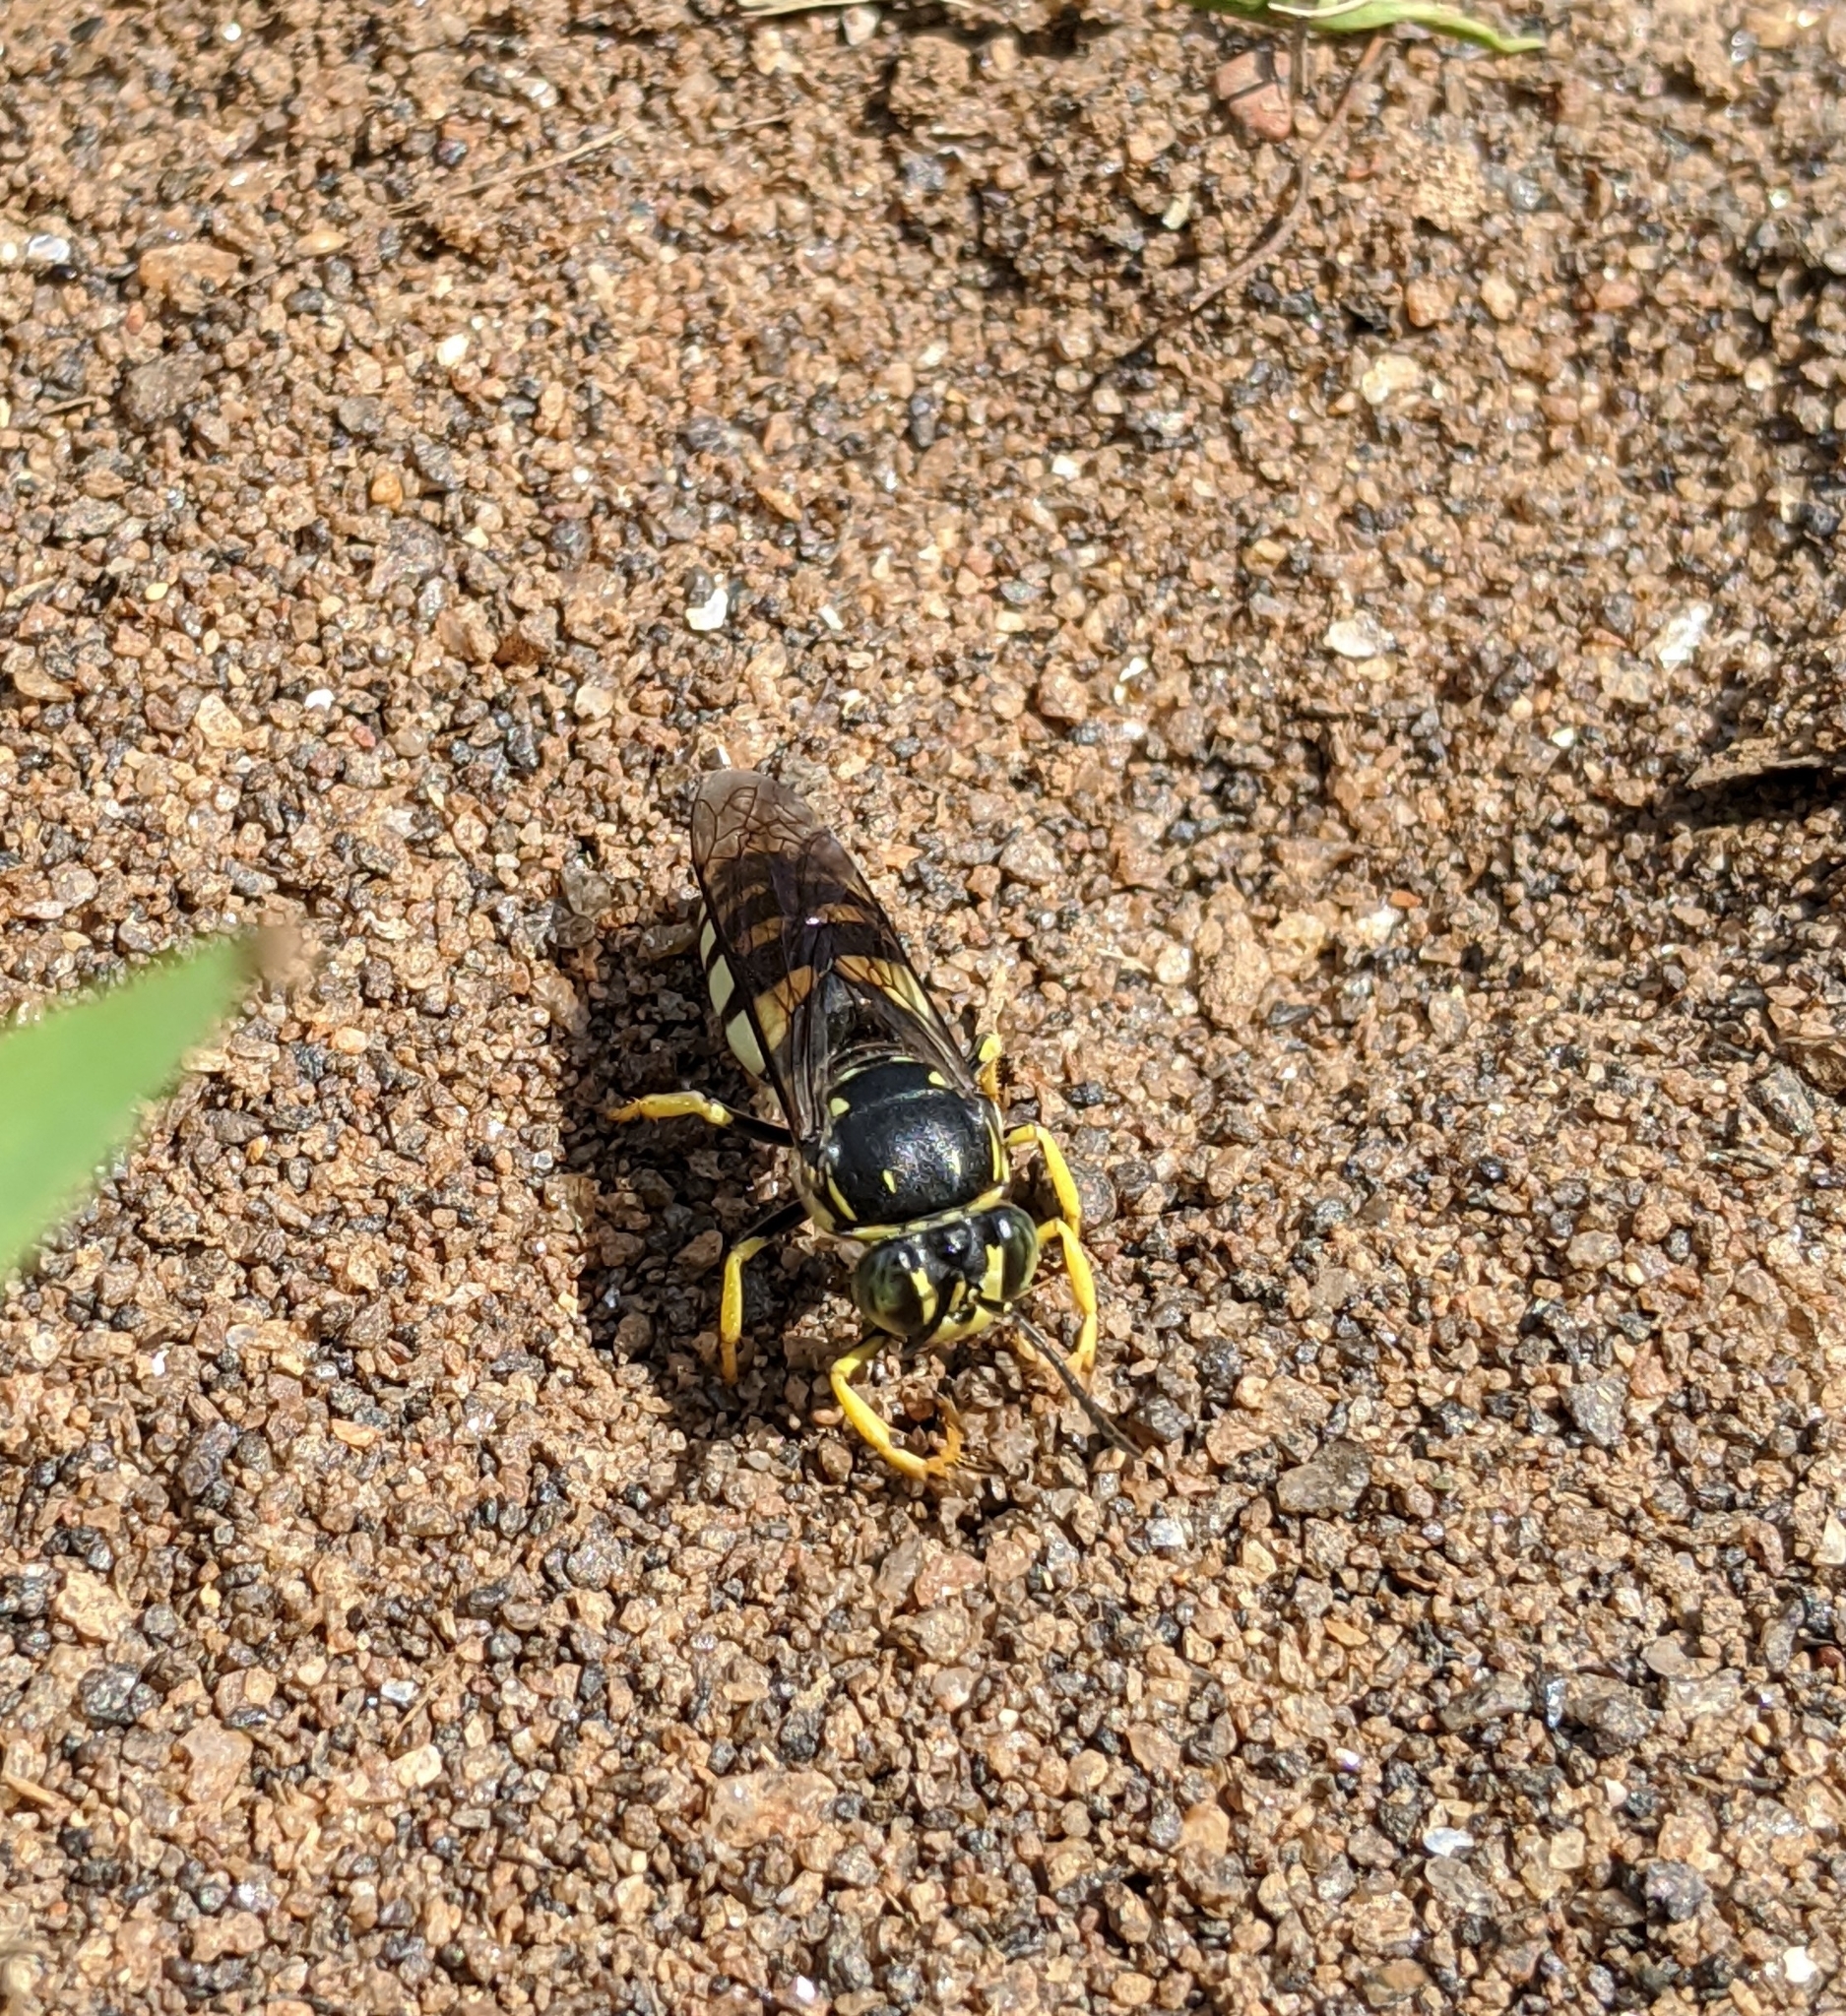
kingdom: Animalia
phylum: Arthropoda
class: Insecta
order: Hymenoptera
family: Crabronidae
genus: Bicyrtes
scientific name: Bicyrtes quadrifasciatus
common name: Four-banded stink bug hunter wasp
